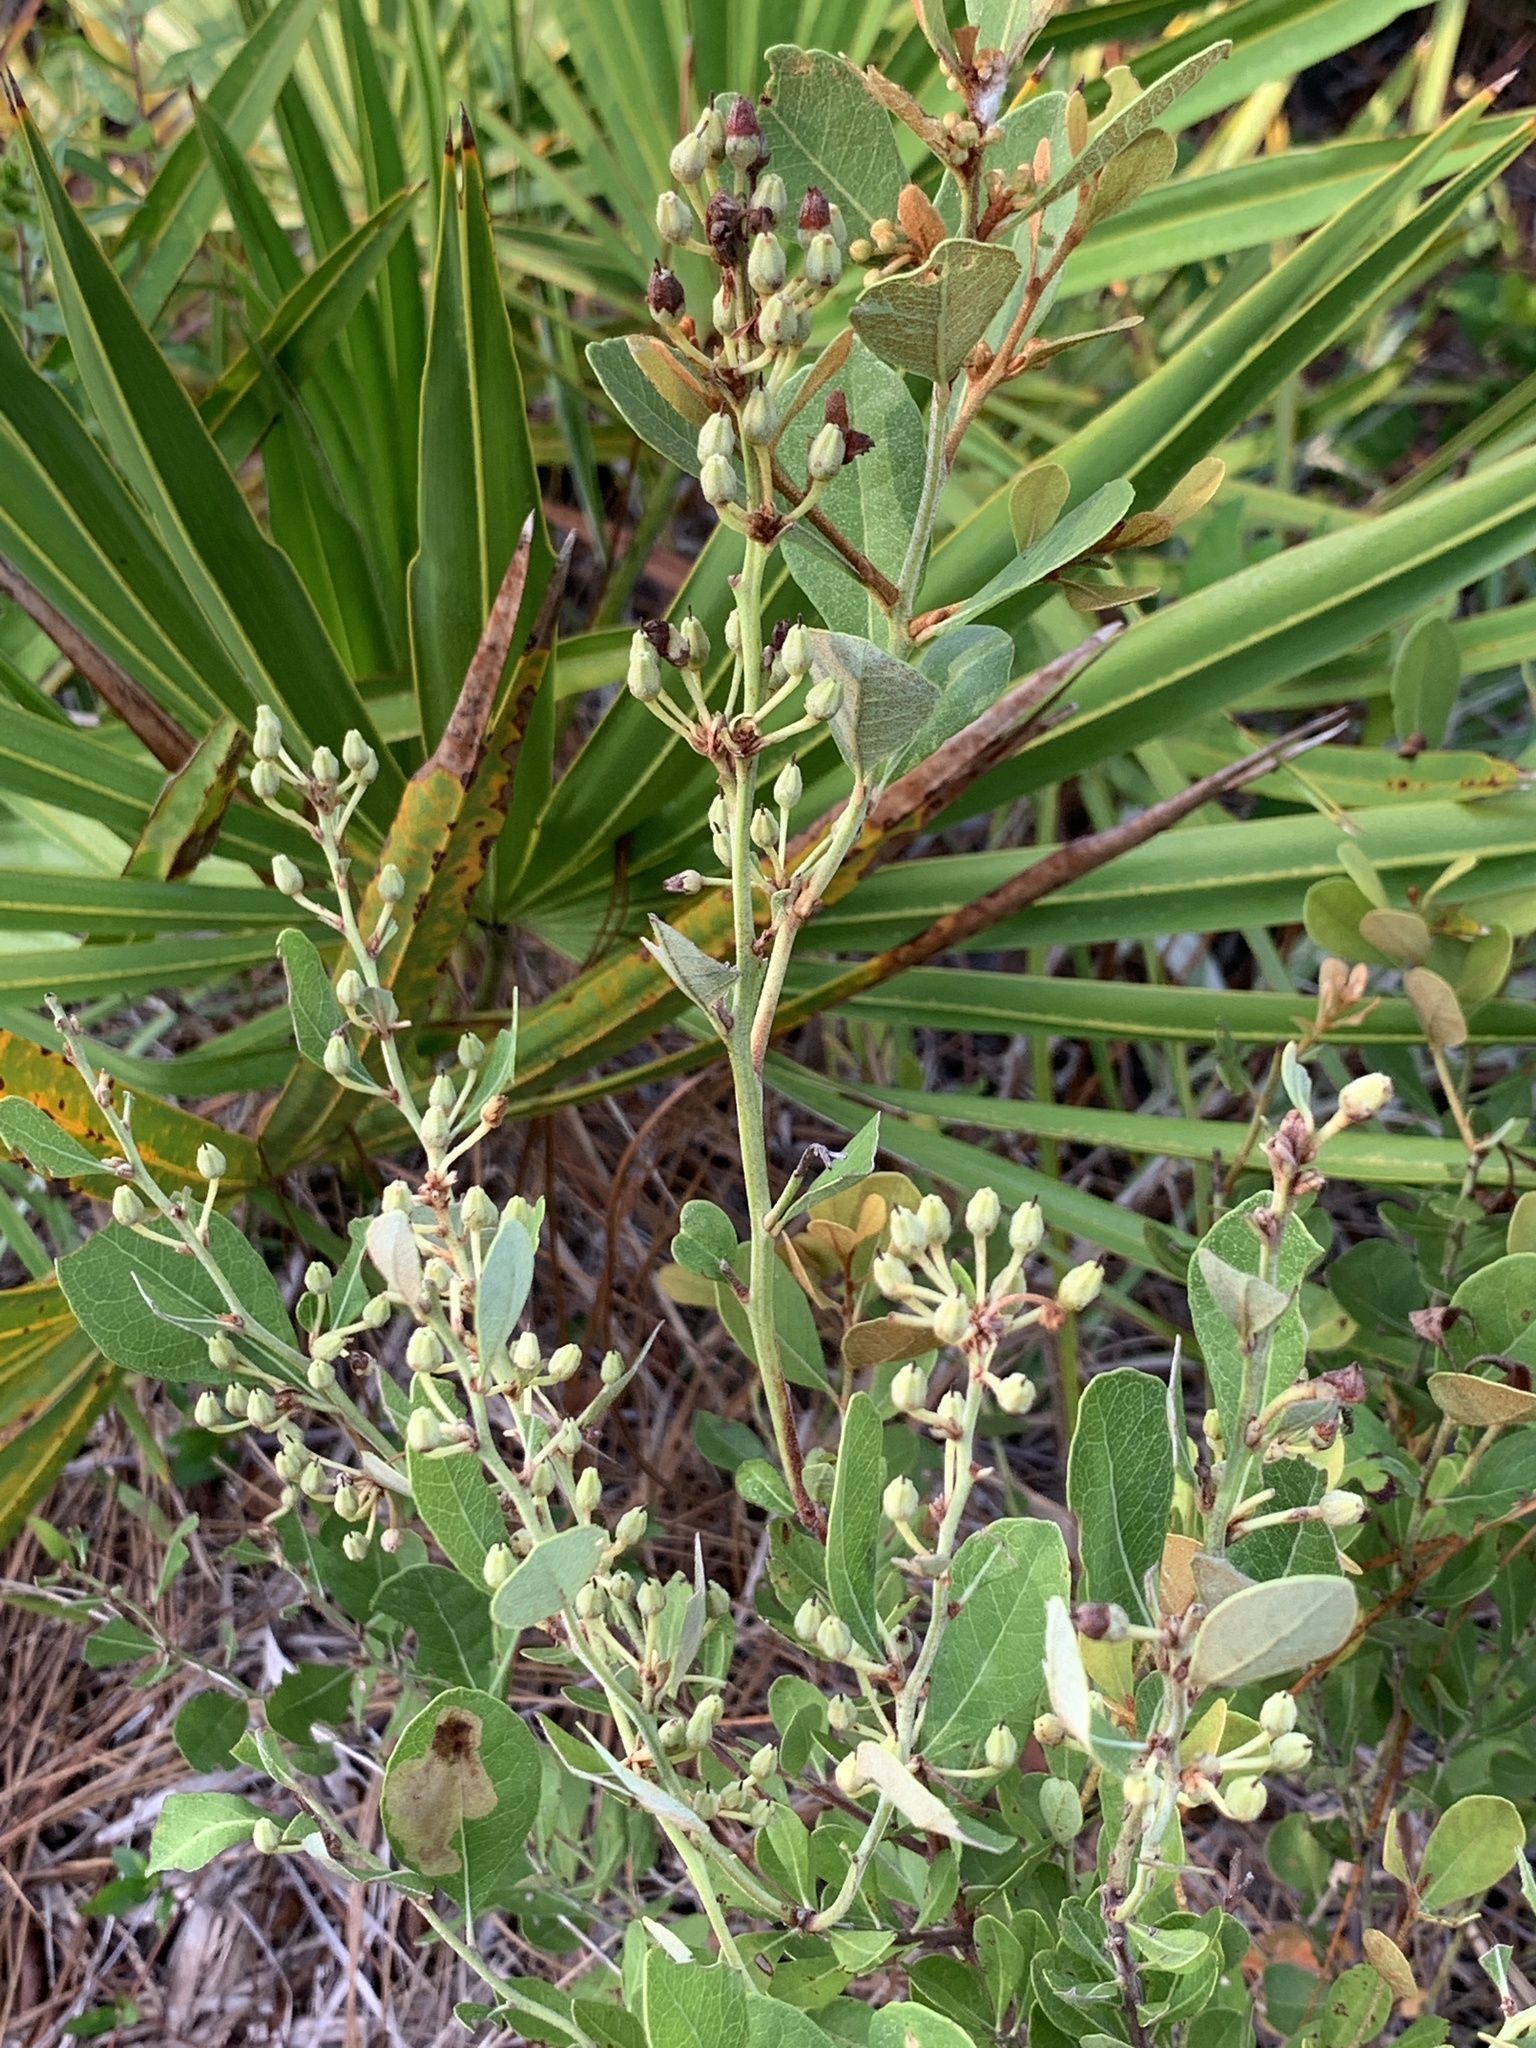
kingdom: Plantae
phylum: Tracheophyta
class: Magnoliopsida
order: Ericales
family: Ericaceae
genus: Lyonia
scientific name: Lyonia fruticosa
